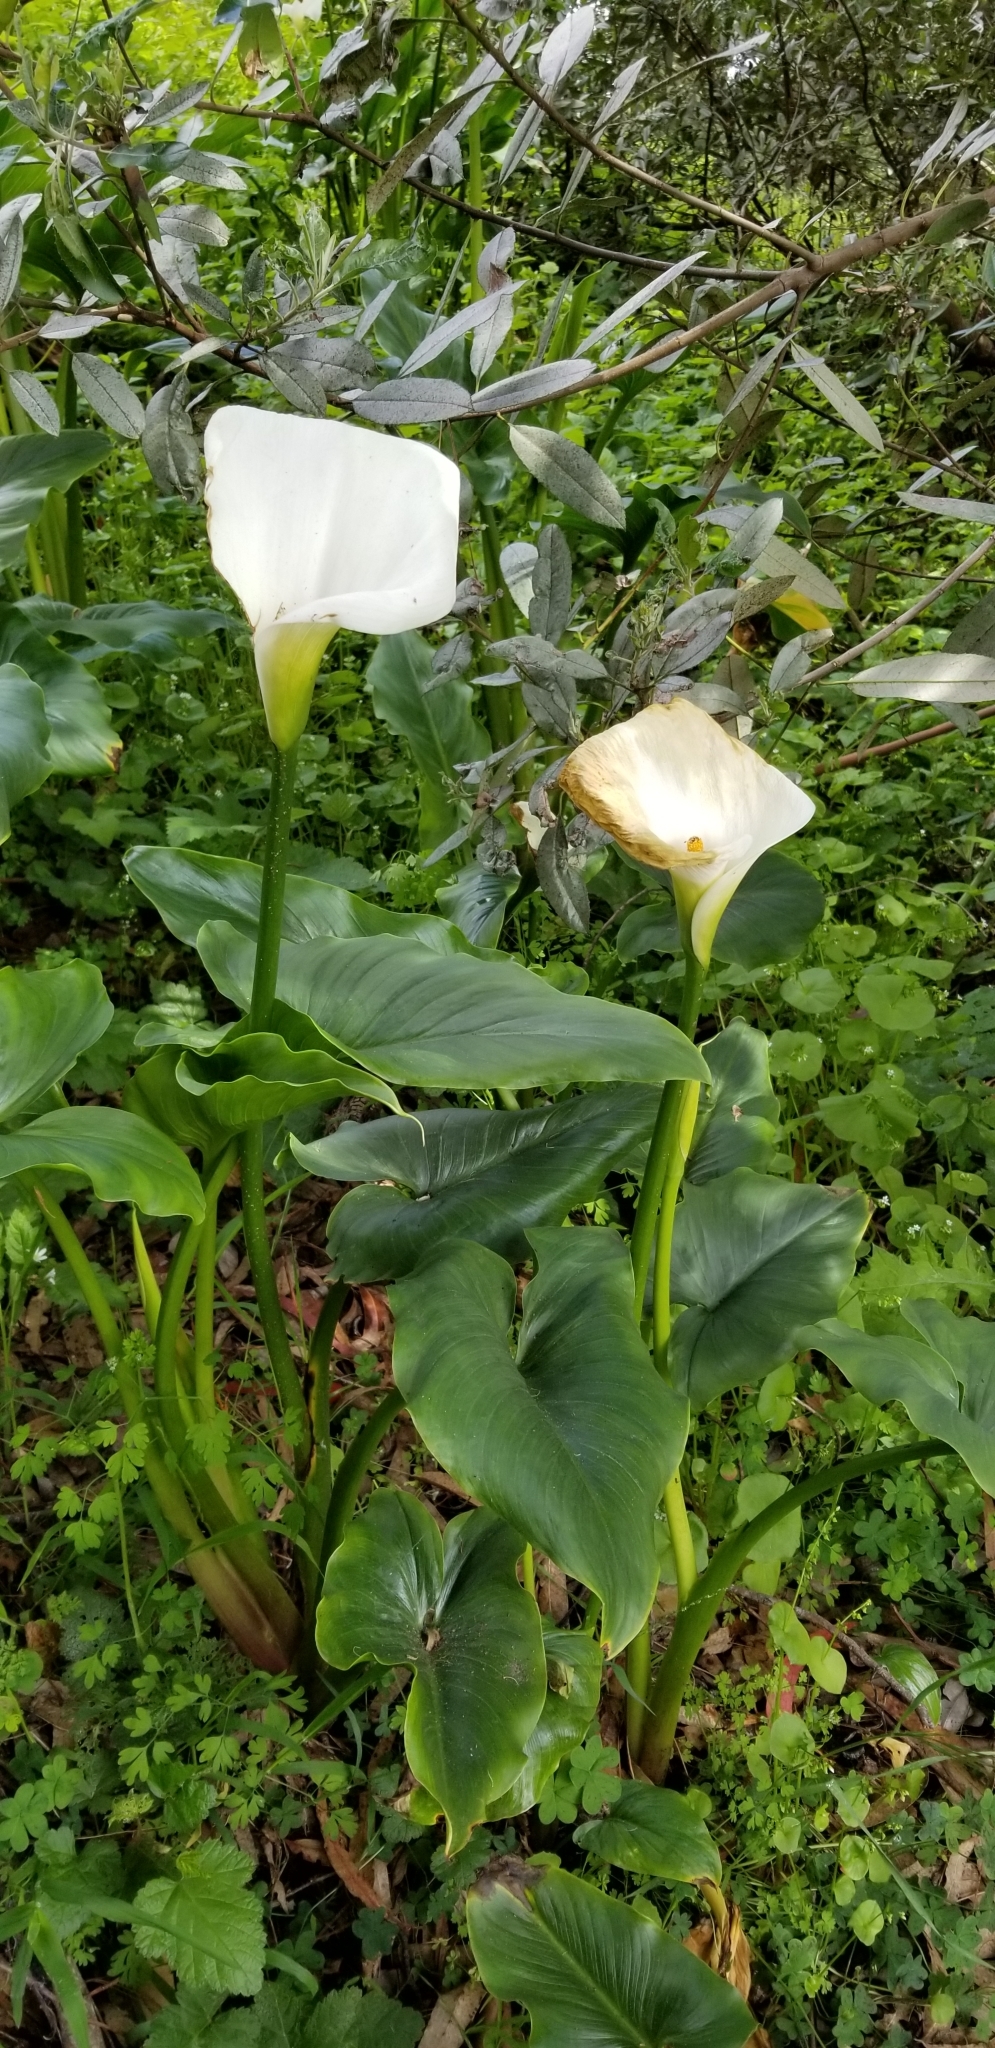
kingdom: Plantae
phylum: Tracheophyta
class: Liliopsida
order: Alismatales
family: Araceae
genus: Zantedeschia
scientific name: Zantedeschia aethiopica
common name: Altar-lily
